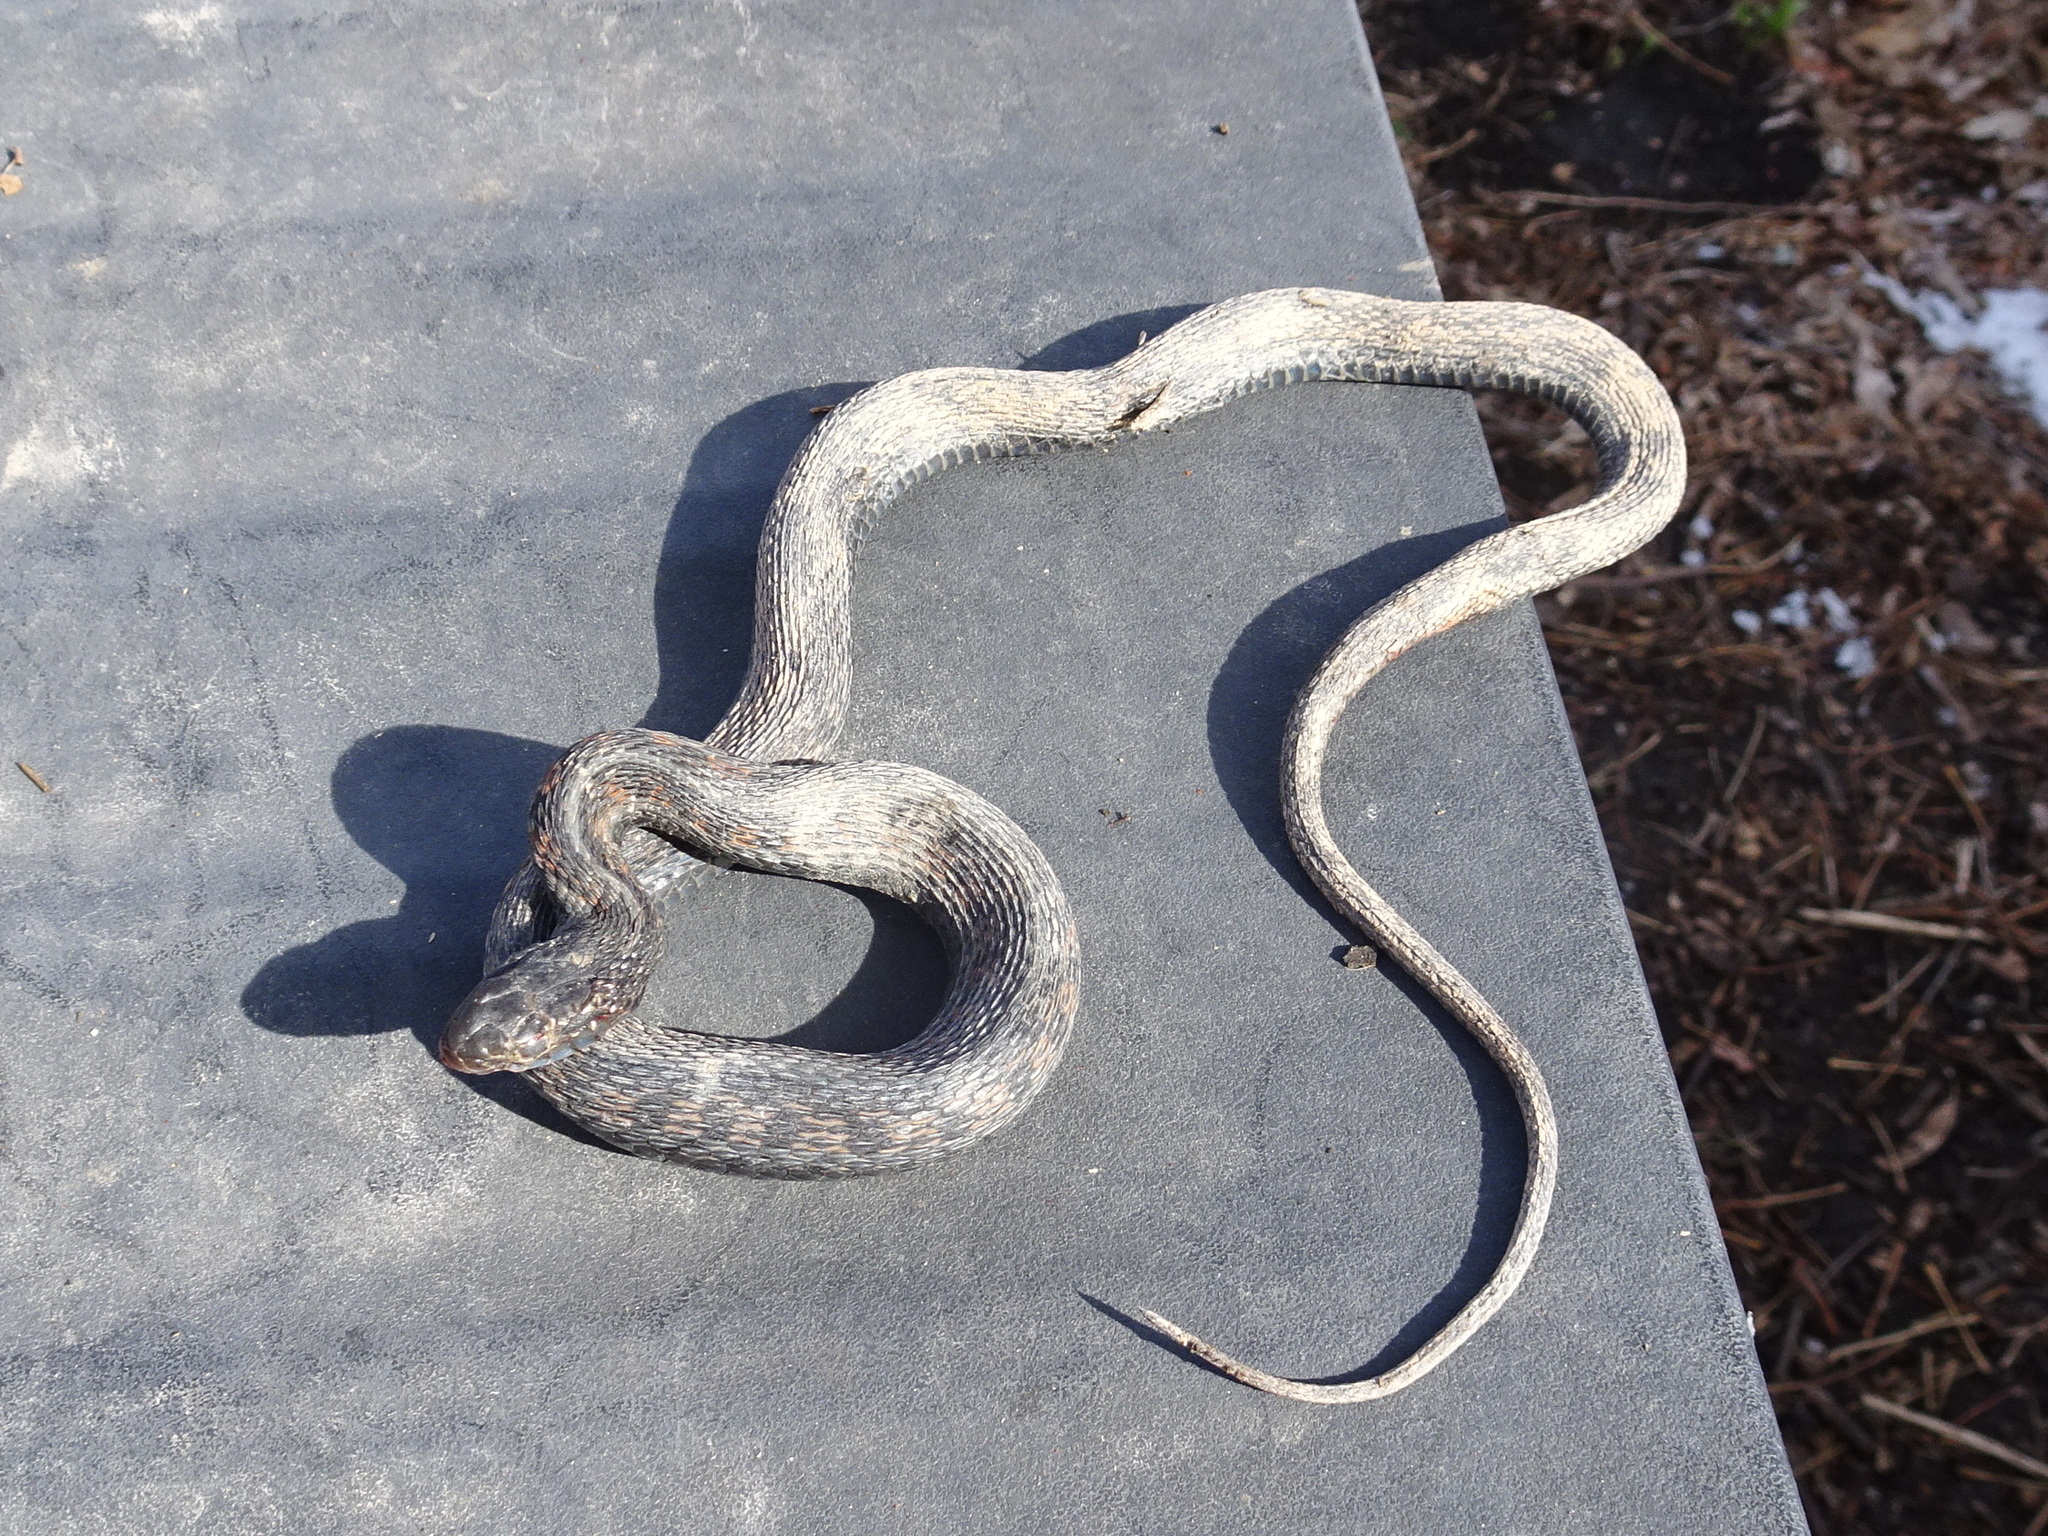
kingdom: Animalia
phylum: Chordata
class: Squamata
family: Colubridae
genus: Thamnophis
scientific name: Thamnophis sirtalis
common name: Common garter snake
